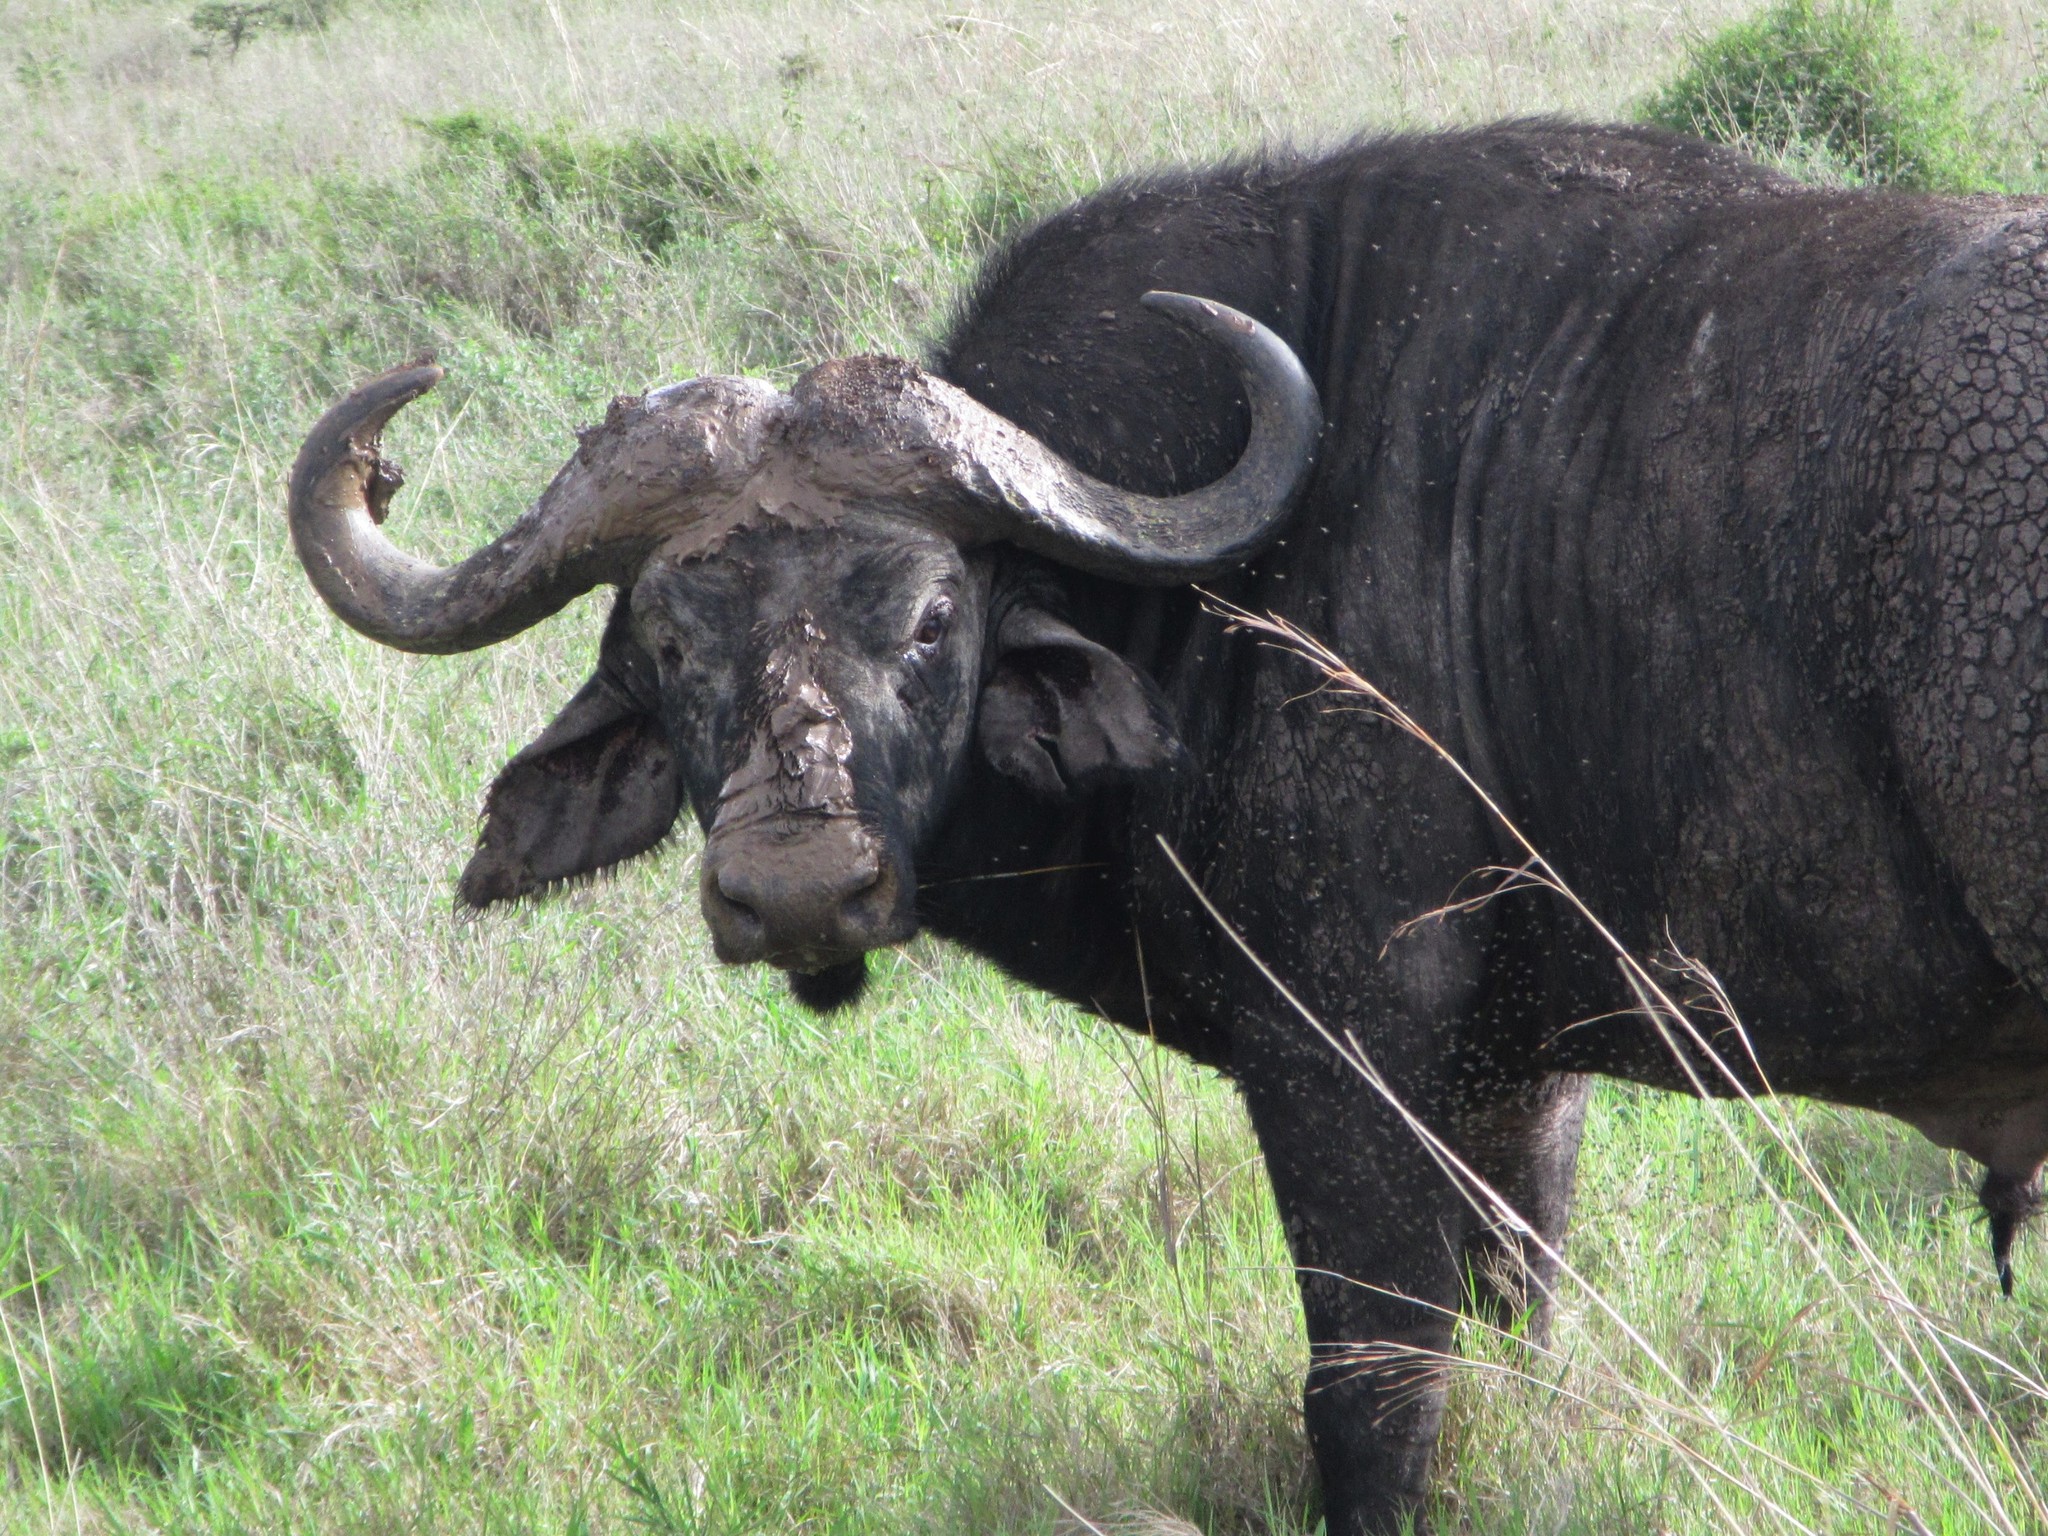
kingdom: Animalia
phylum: Chordata
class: Mammalia
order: Artiodactyla
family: Bovidae
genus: Syncerus
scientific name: Syncerus caffer
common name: African buffalo
